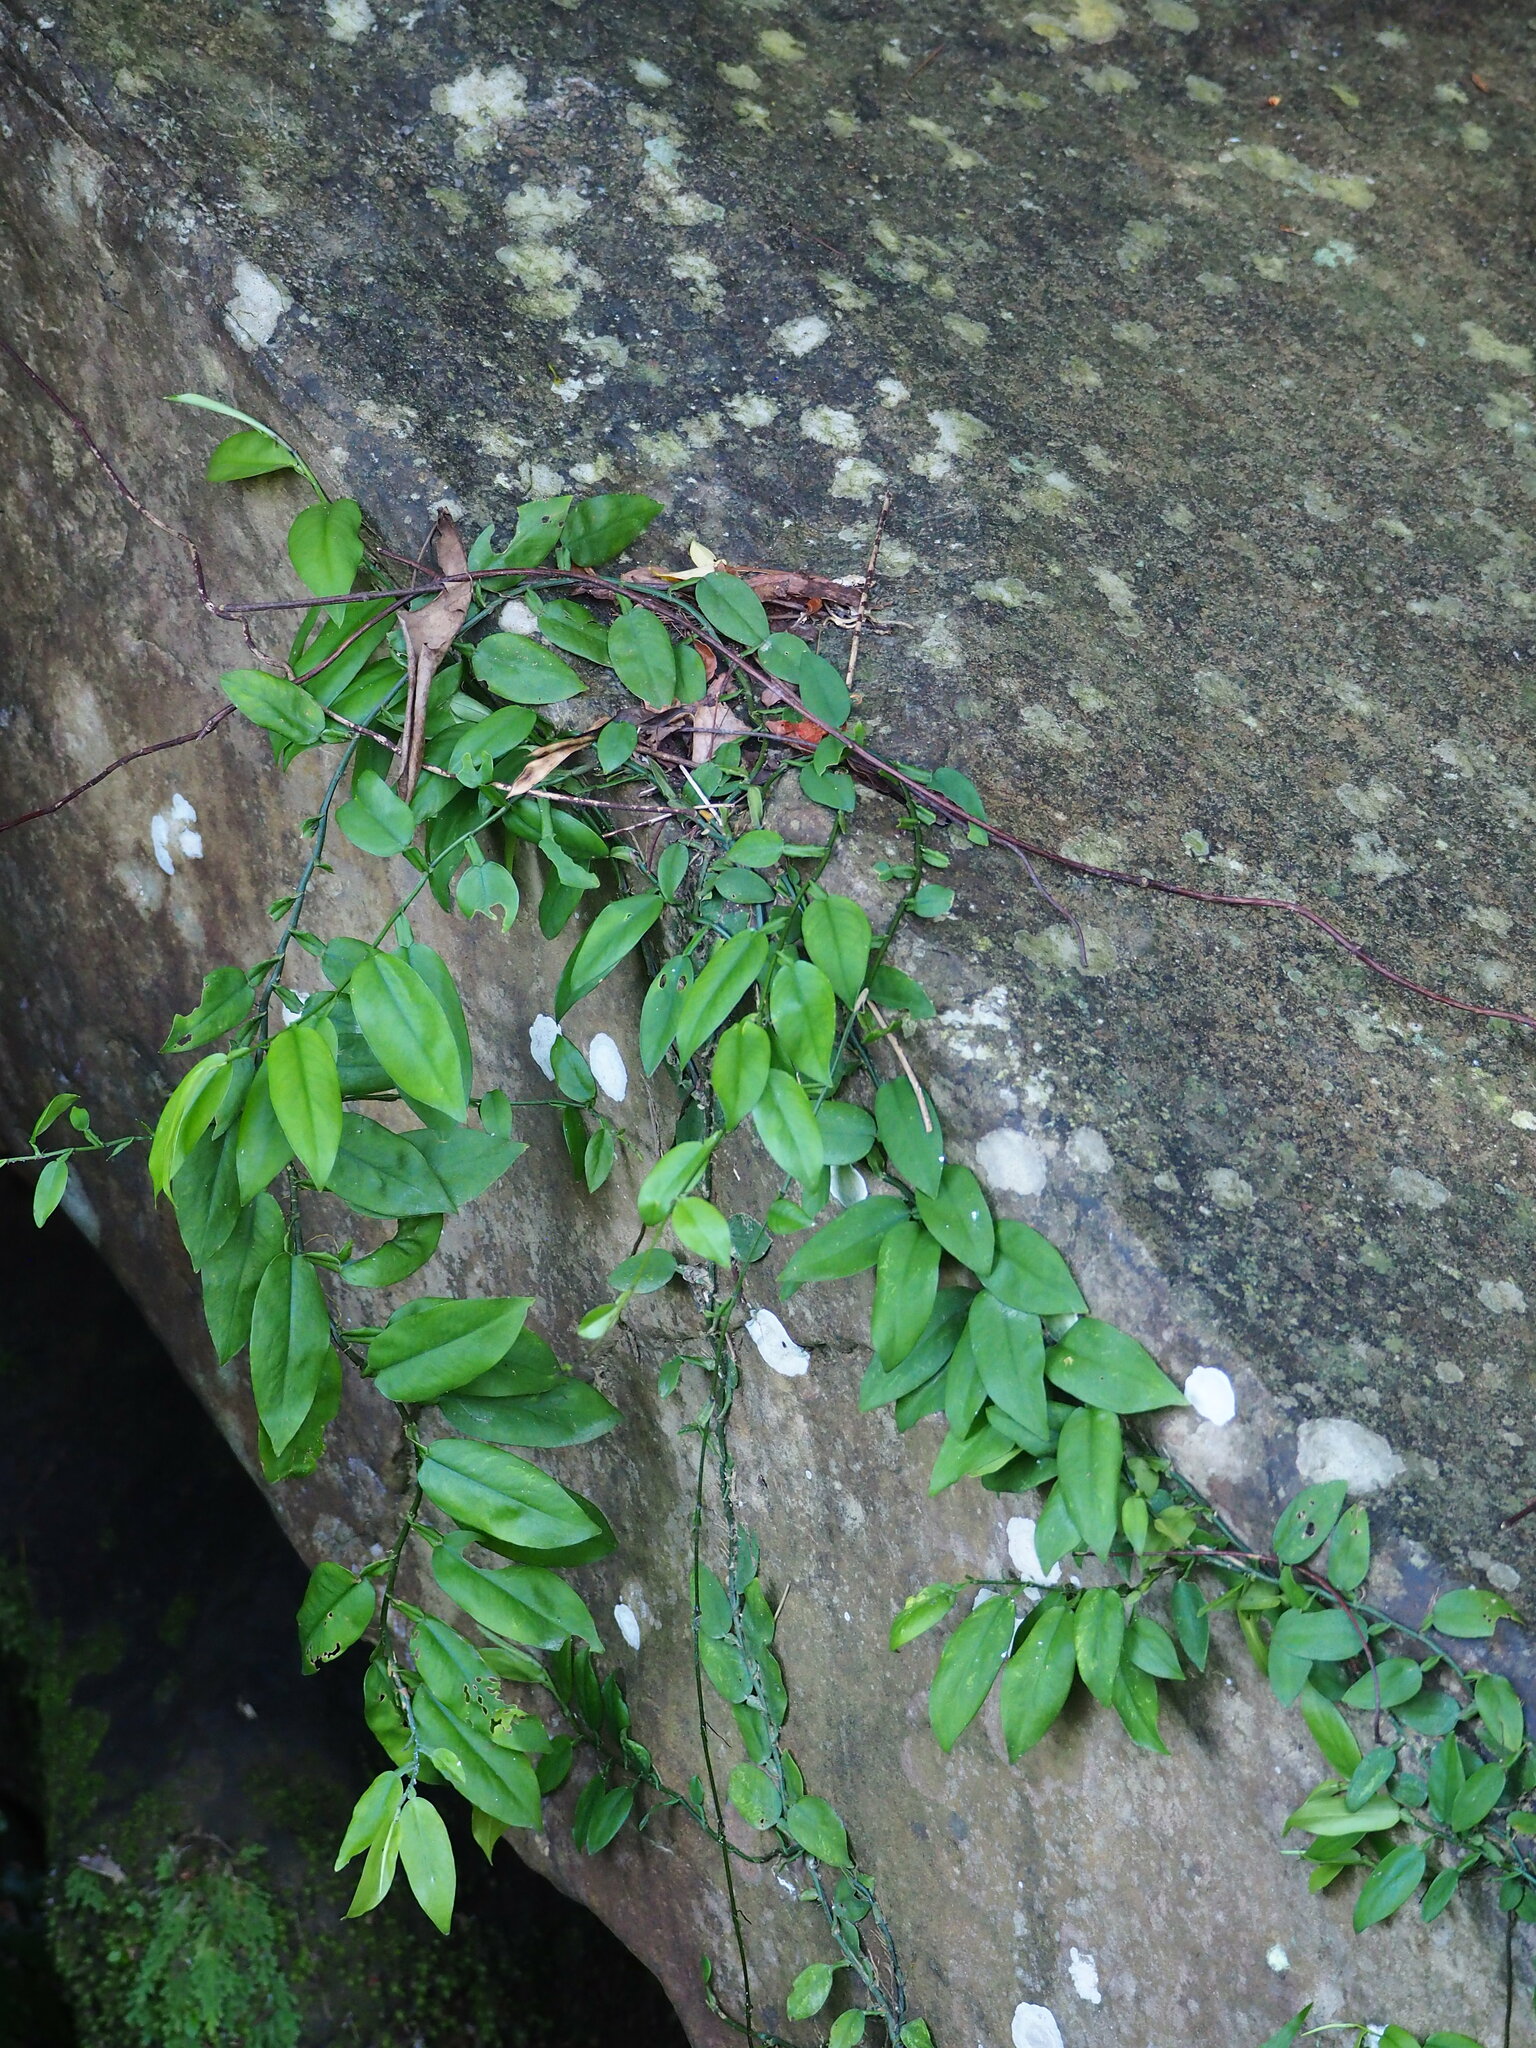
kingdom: Plantae
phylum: Tracheophyta
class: Liliopsida
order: Alismatales
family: Araceae
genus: Pothos
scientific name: Pothos chinensis
